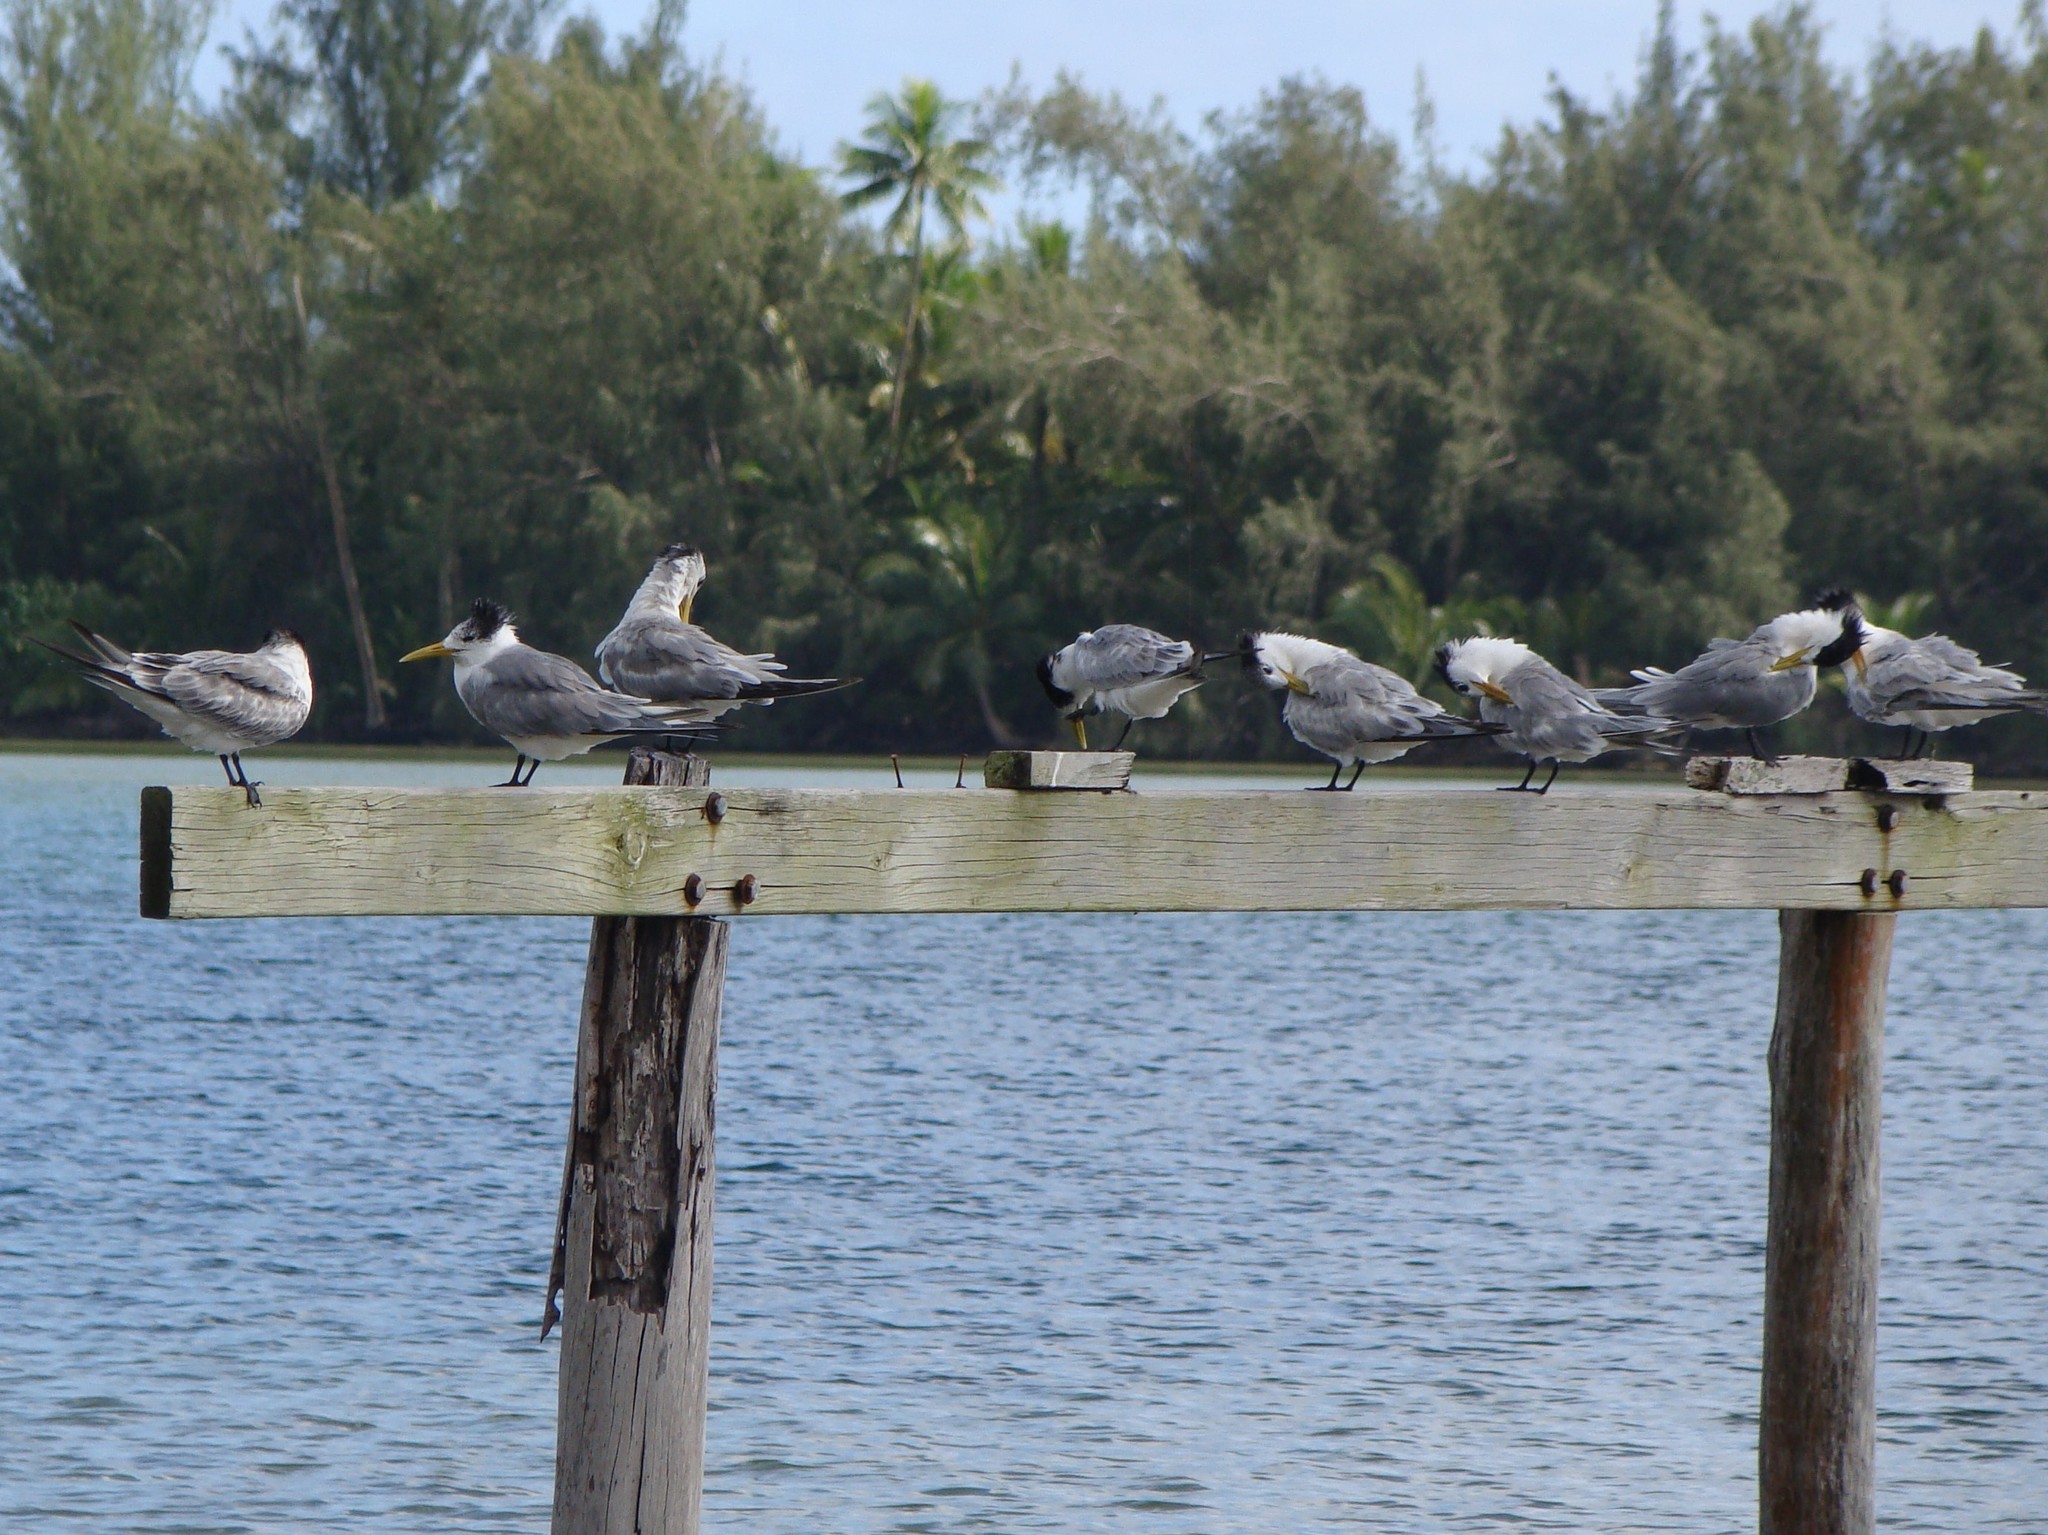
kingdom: Animalia
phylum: Chordata
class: Aves
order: Charadriiformes
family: Laridae
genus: Thalasseus
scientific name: Thalasseus bergii
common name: Greater crested tern
